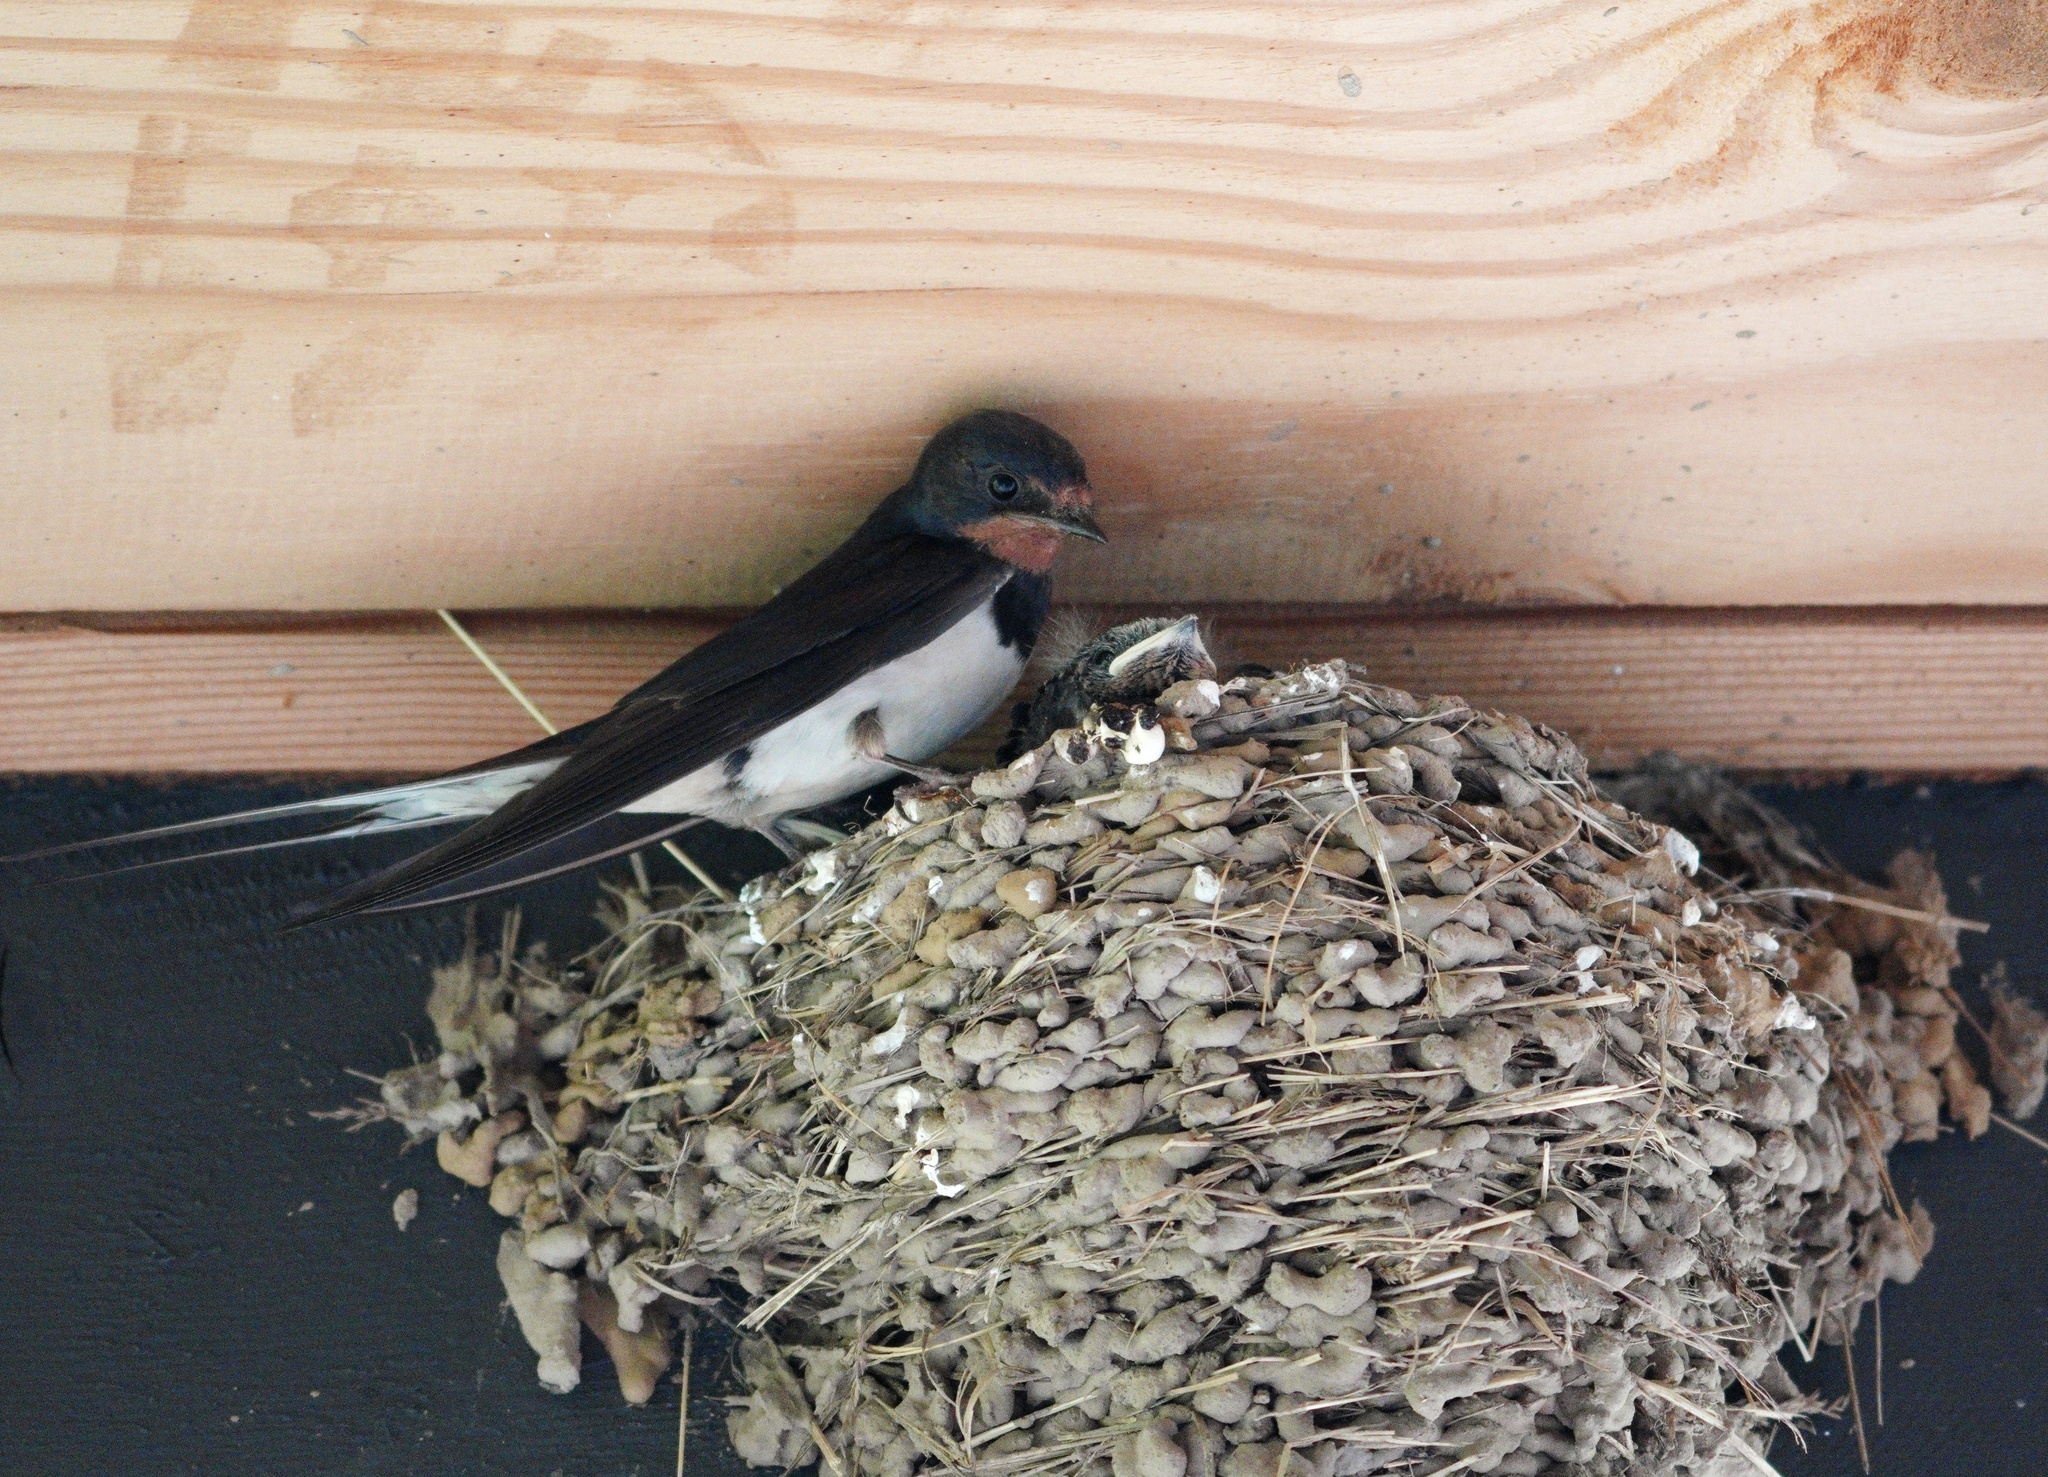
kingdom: Animalia
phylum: Chordata
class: Aves
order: Passeriformes
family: Hirundinidae
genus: Hirundo
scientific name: Hirundo rustica
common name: Barn swallow
